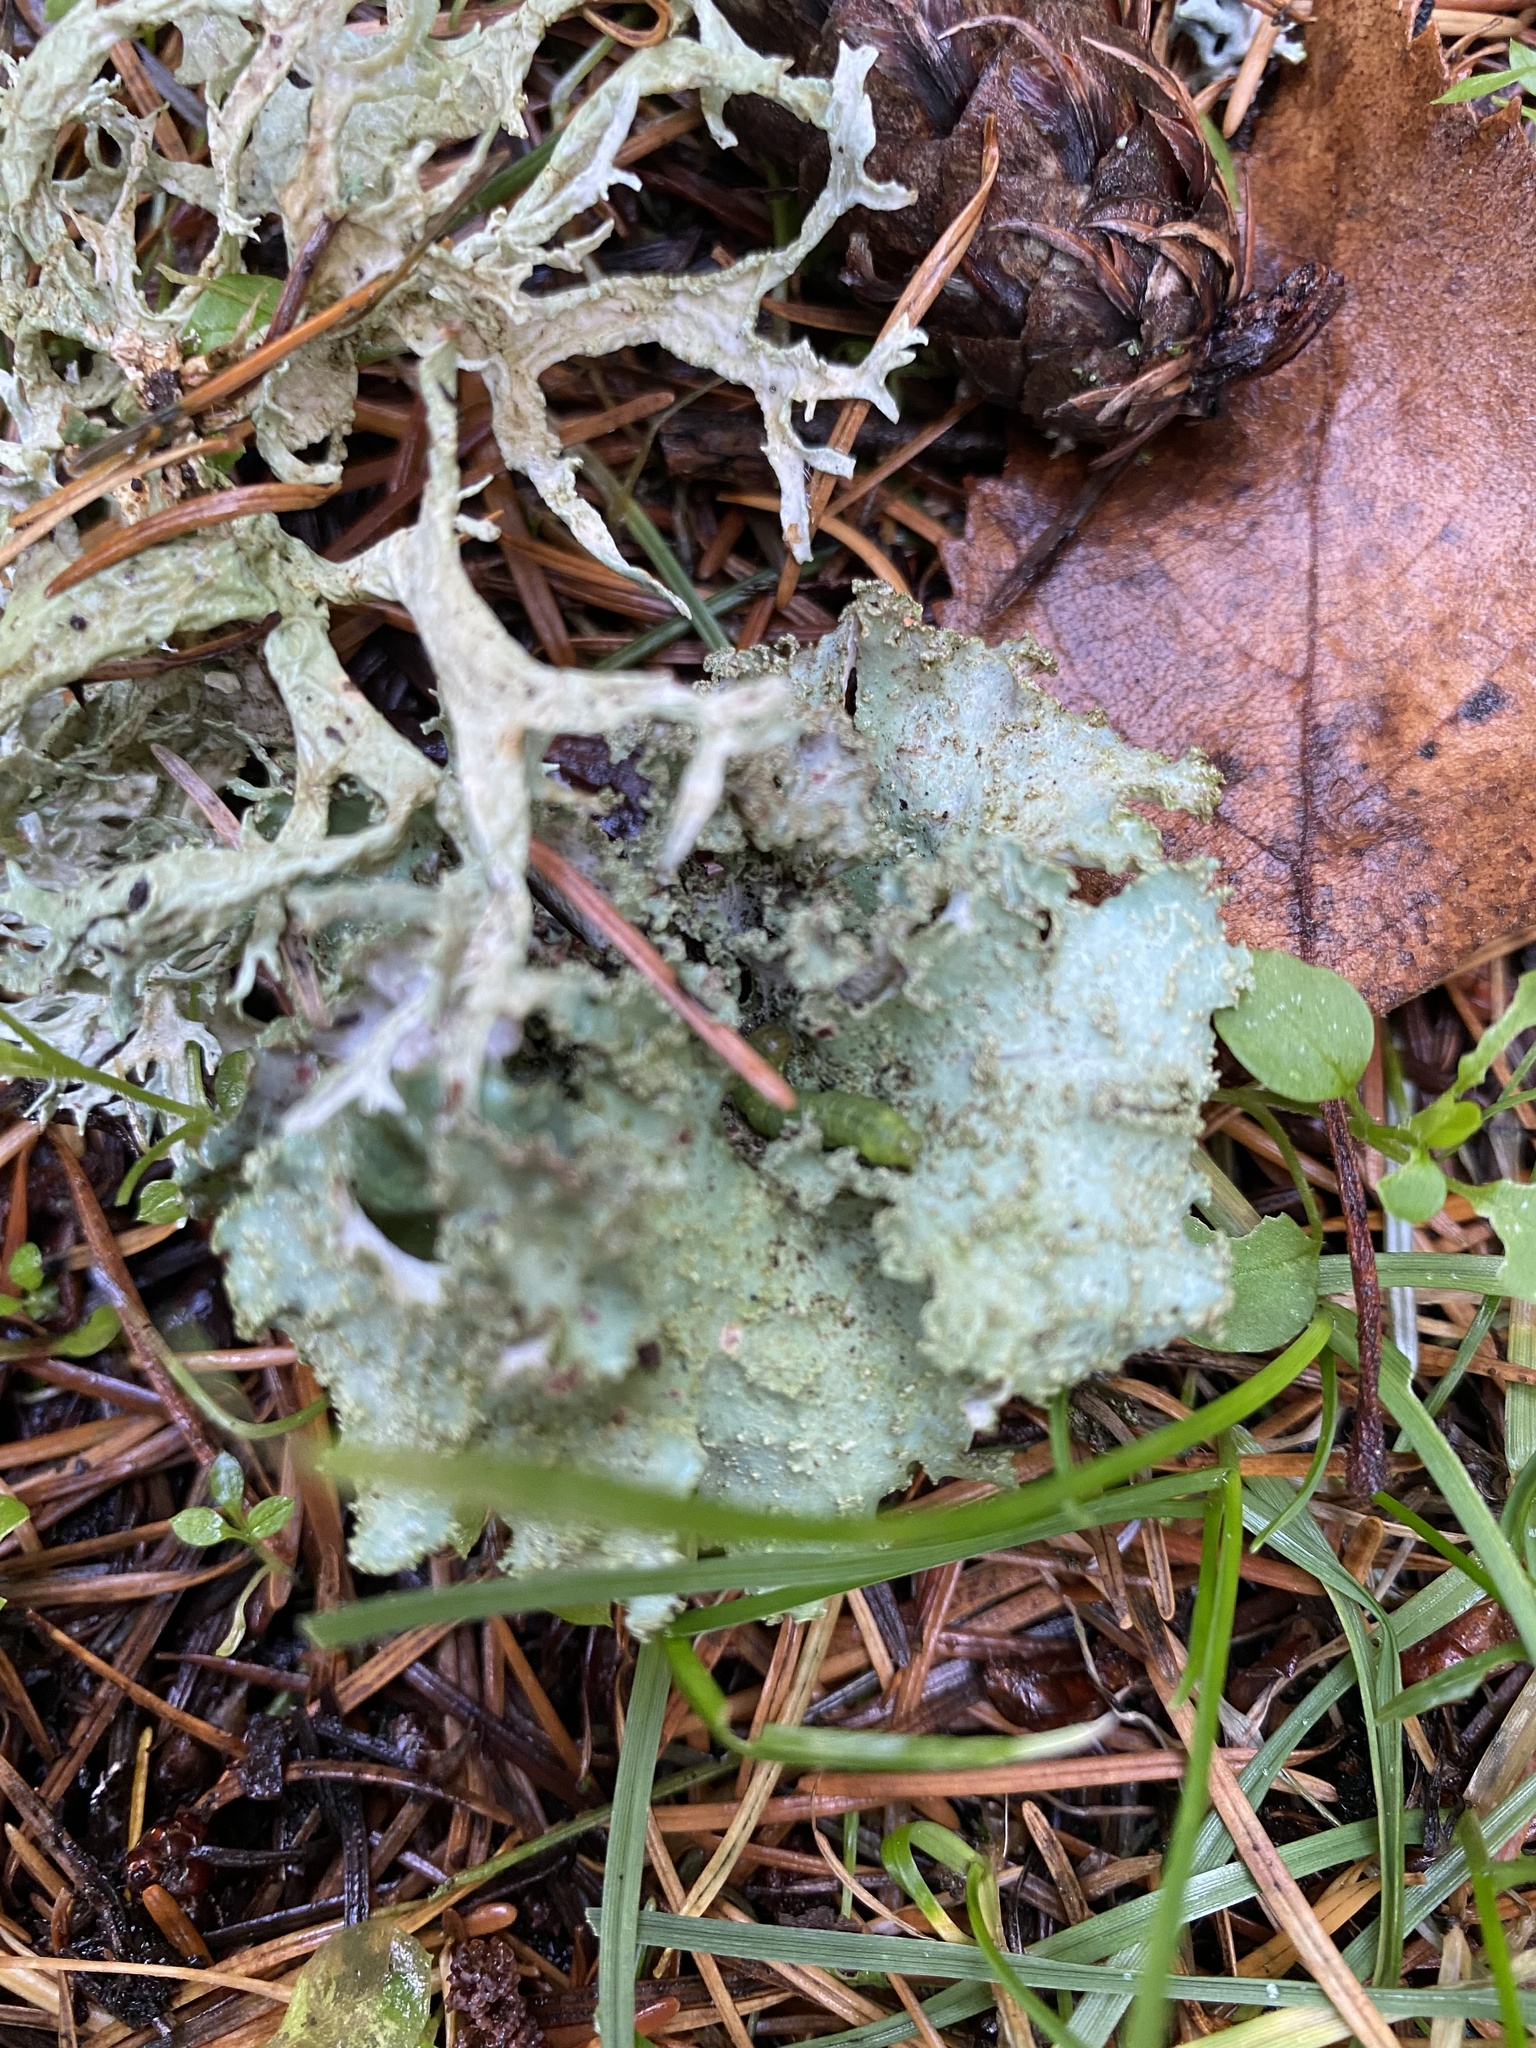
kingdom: Fungi
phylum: Ascomycota
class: Lecanoromycetes
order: Lecanorales
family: Parmeliaceae
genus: Platismatia
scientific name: Platismatia glauca
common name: Varied rag lichen
